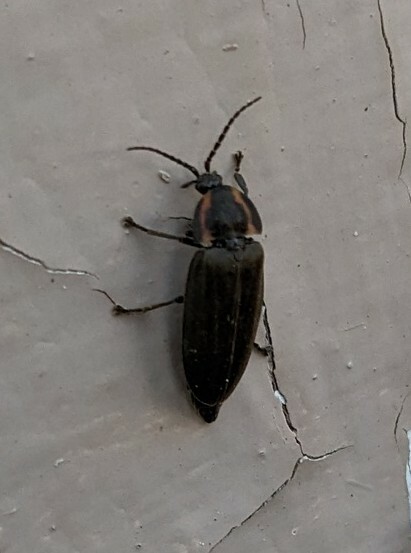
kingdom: Animalia
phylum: Arthropoda
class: Insecta
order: Coleoptera
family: Lampyridae
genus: Photinus
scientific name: Photinus corrusca
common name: Winter firefly
